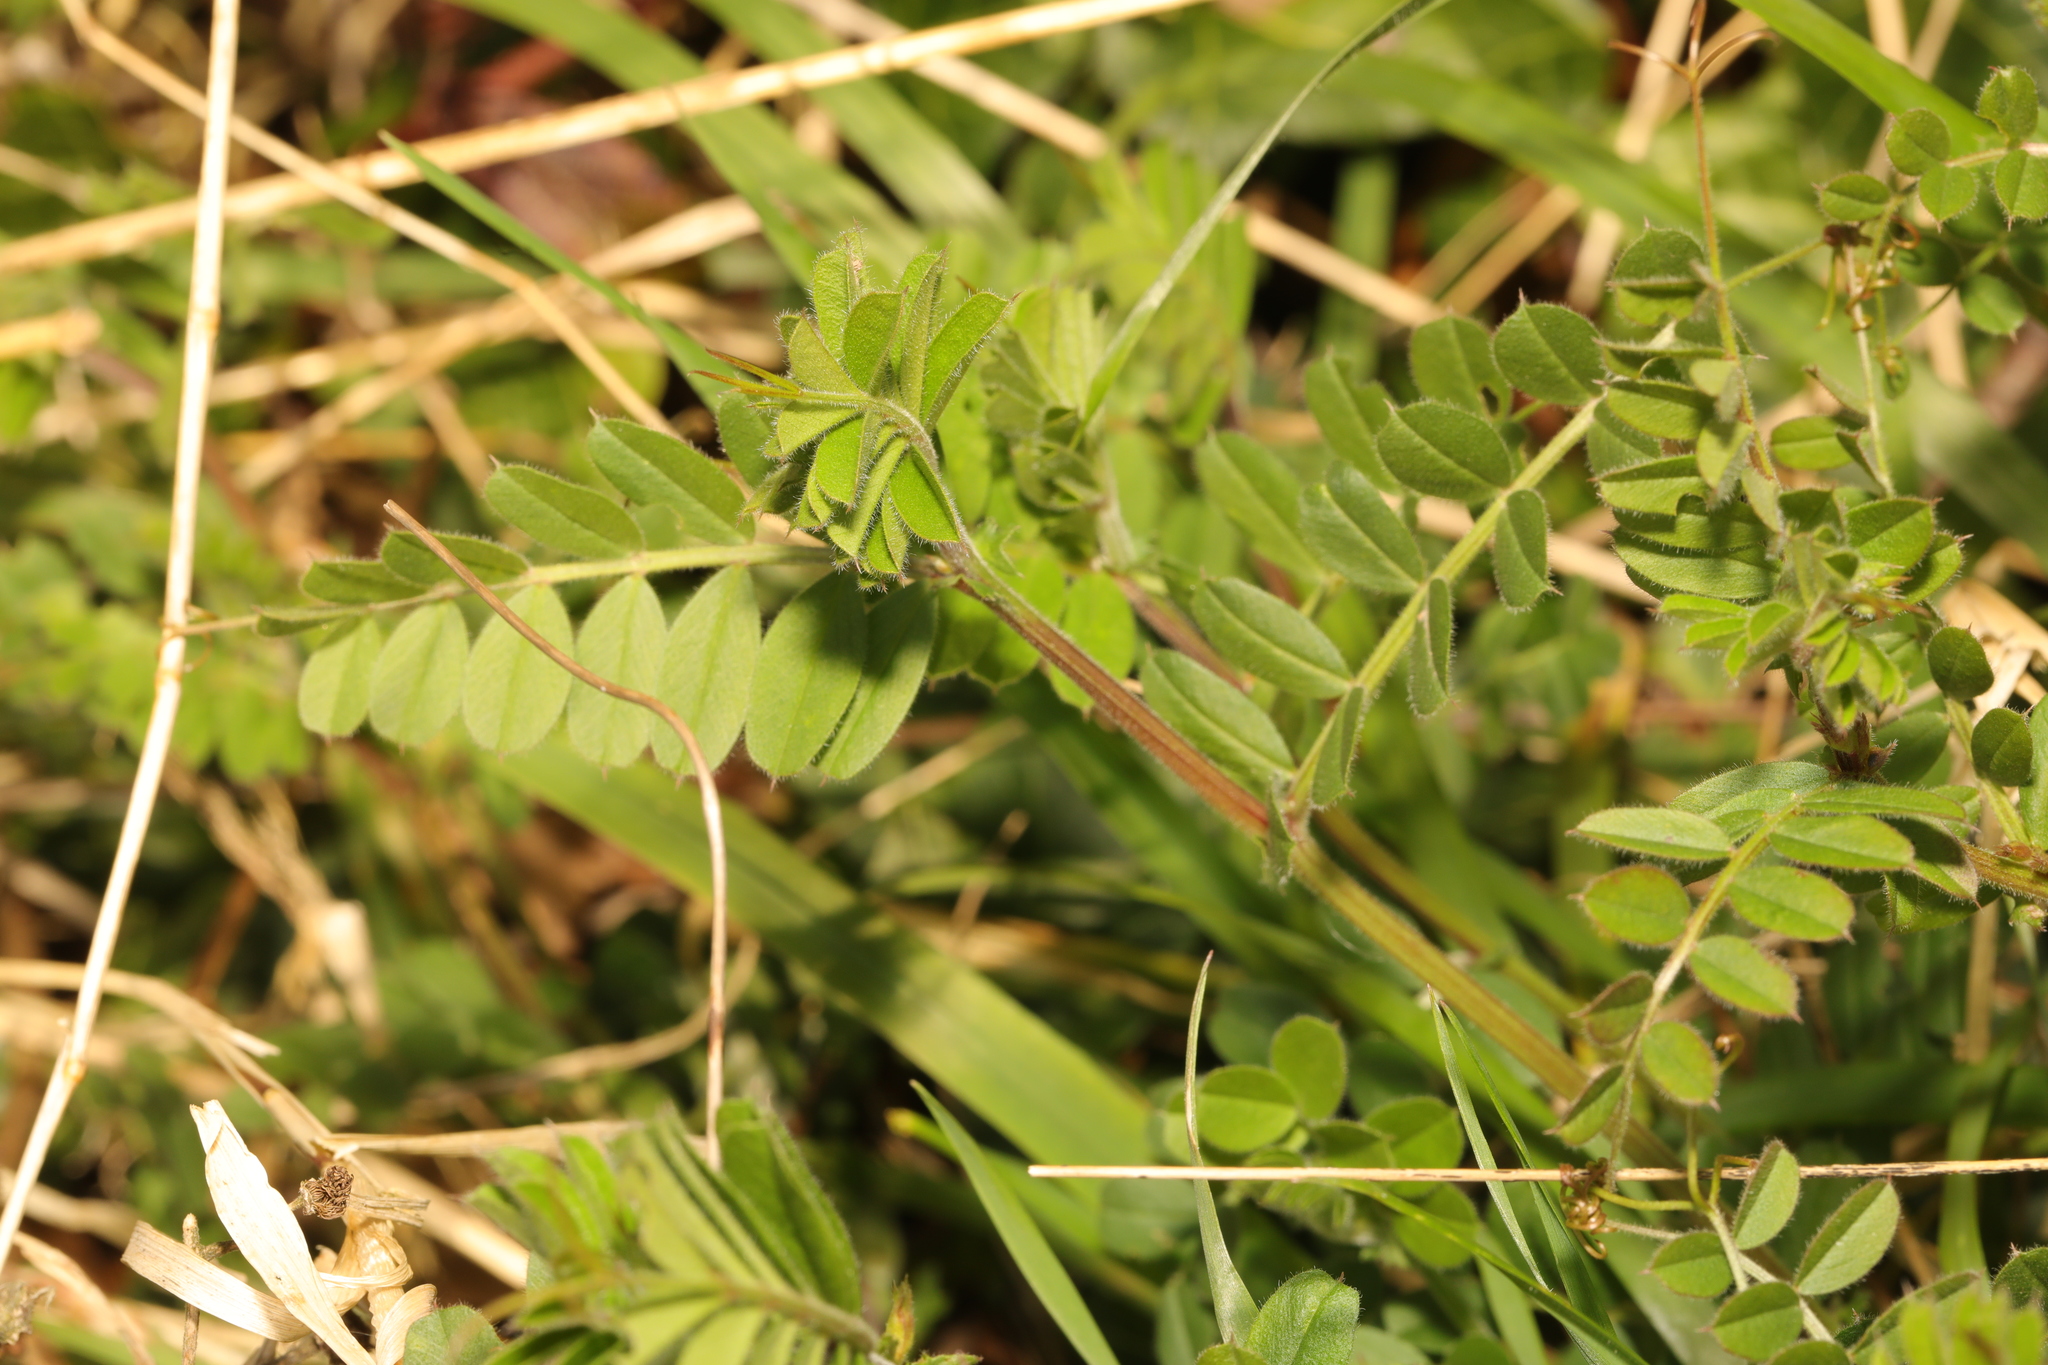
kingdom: Plantae
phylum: Tracheophyta
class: Magnoliopsida
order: Fabales
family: Fabaceae
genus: Vicia
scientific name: Vicia sativa
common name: Garden vetch
